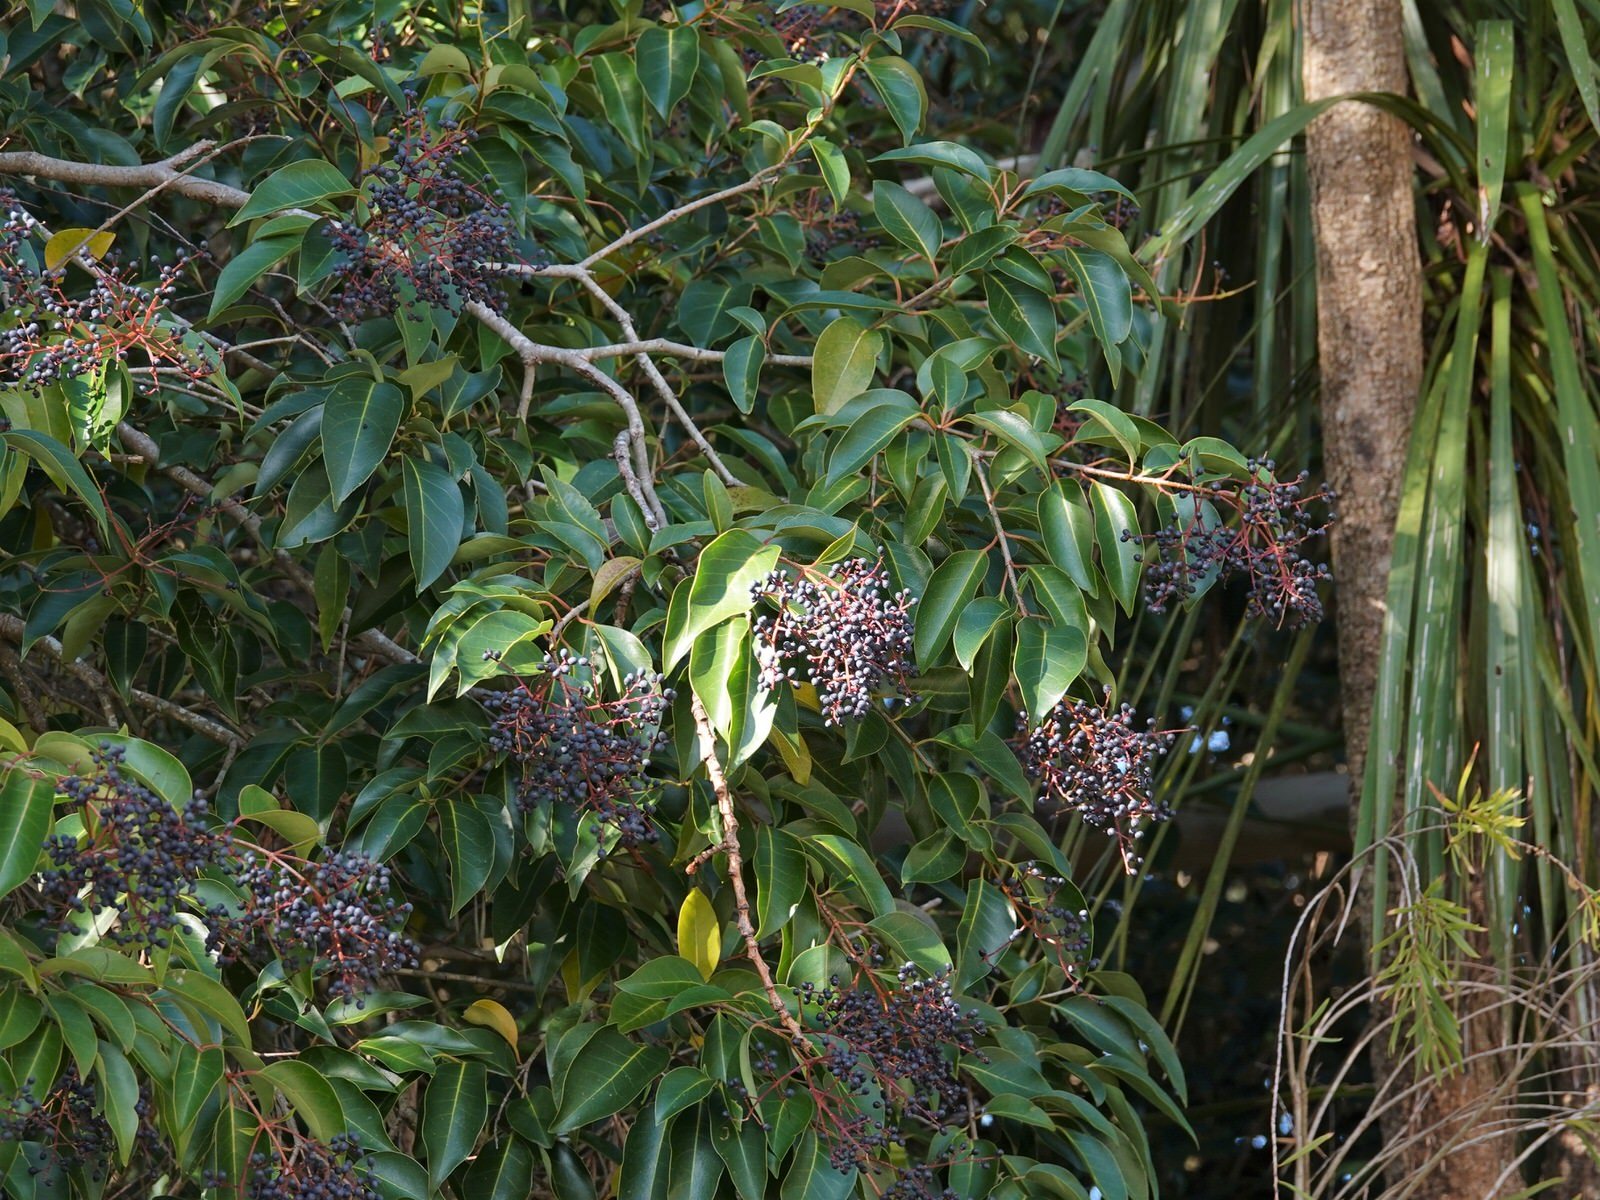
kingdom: Plantae
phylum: Tracheophyta
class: Magnoliopsida
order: Lamiales
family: Oleaceae
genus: Ligustrum
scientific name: Ligustrum lucidum
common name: Glossy privet
